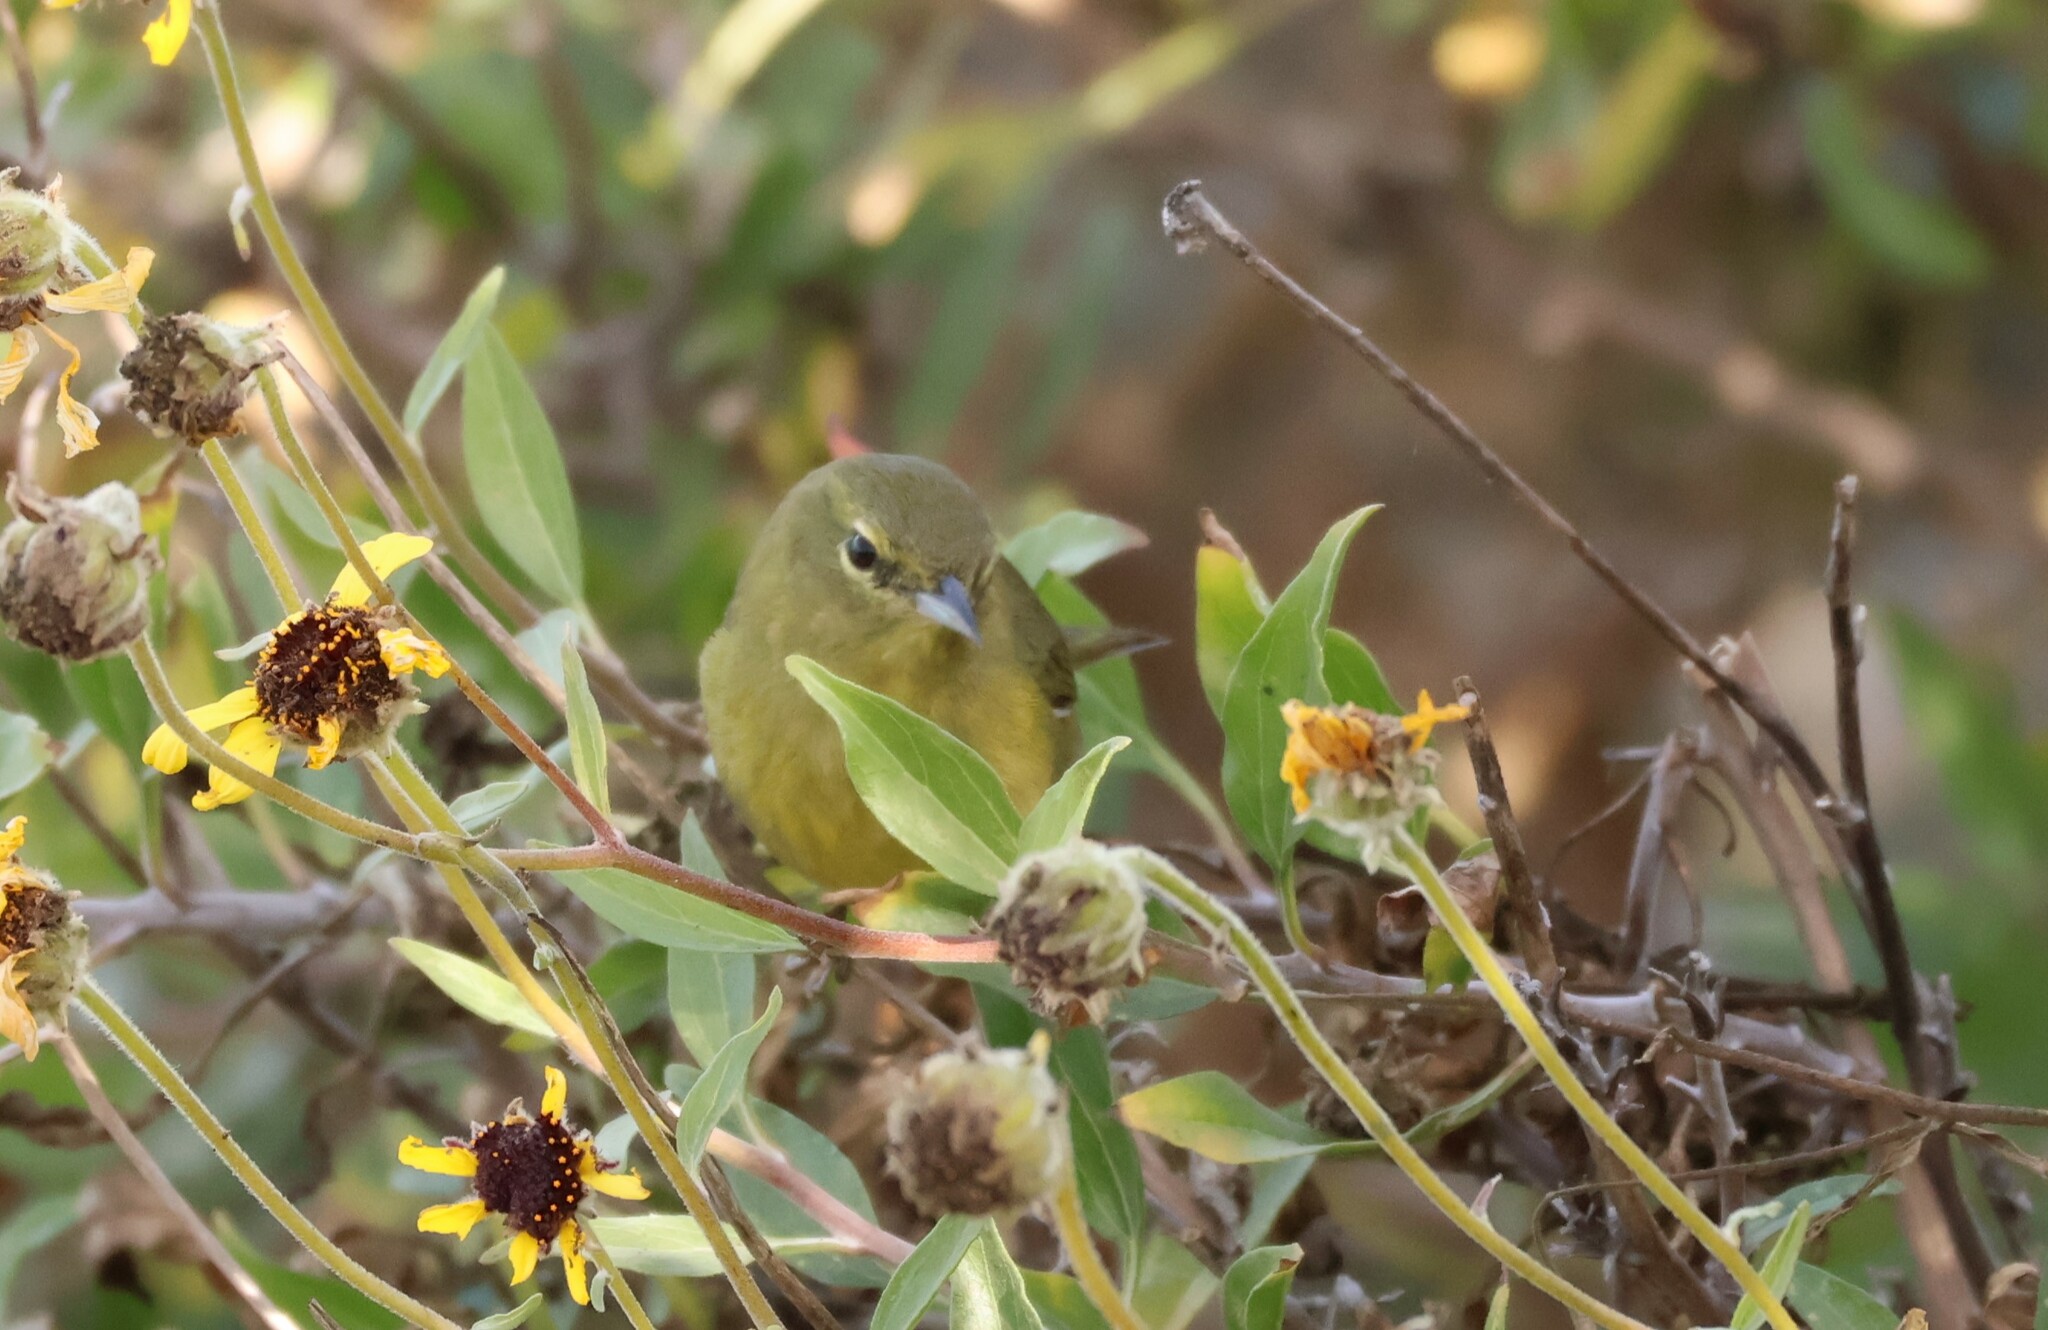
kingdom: Animalia
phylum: Chordata
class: Aves
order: Passeriformes
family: Parulidae
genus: Leiothlypis
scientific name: Leiothlypis celata
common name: Orange-crowned warbler
